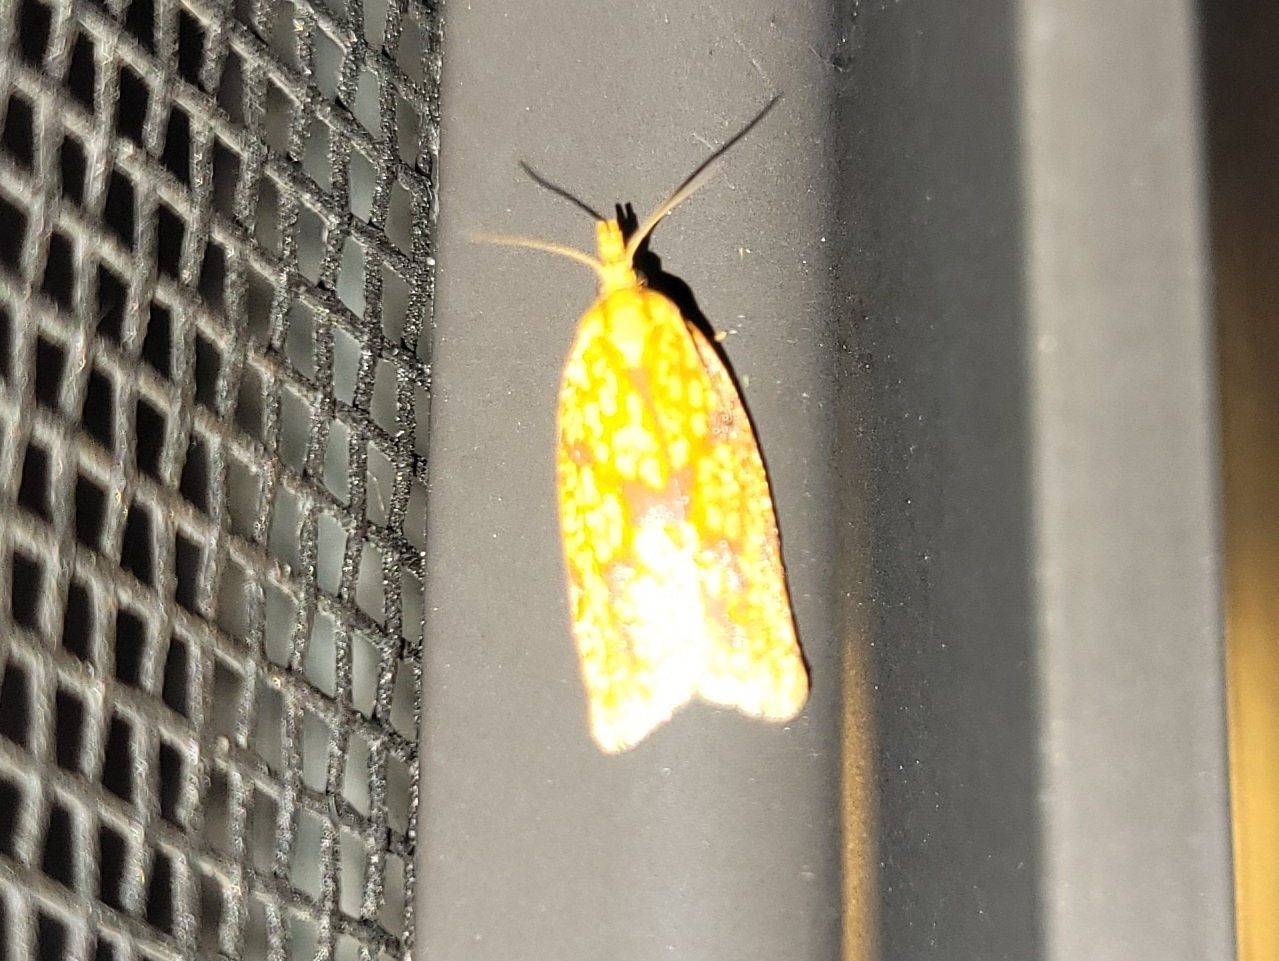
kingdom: Animalia
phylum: Arthropoda
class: Insecta
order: Lepidoptera
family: Tortricidae
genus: Sparganothis
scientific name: Sparganothis sulfureana
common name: Sparganothis fruitworm moth
